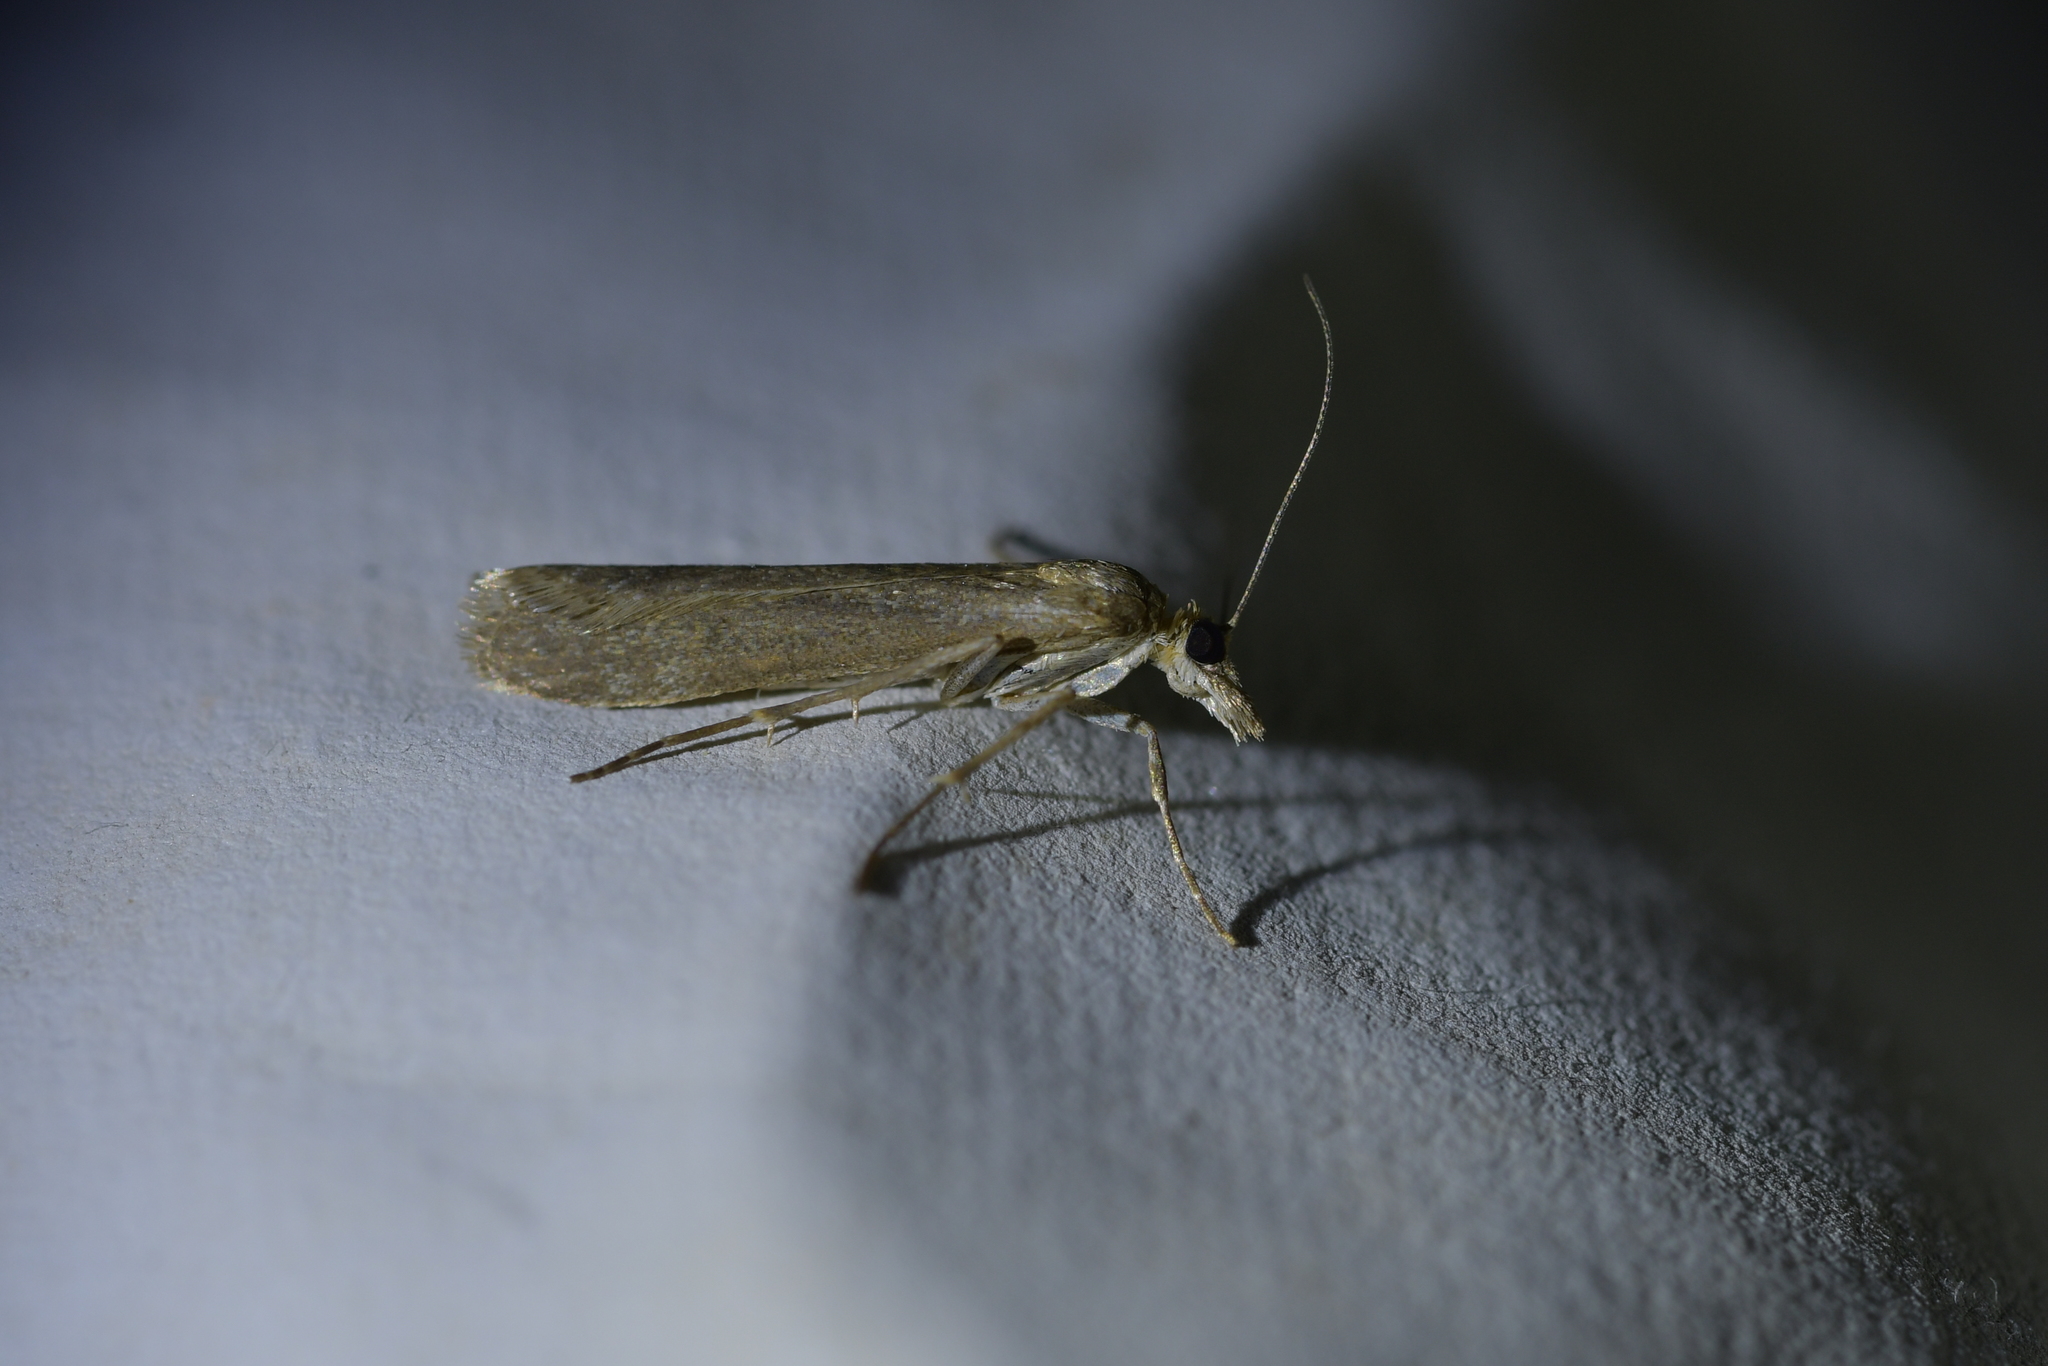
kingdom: Animalia
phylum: Arthropoda
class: Insecta
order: Lepidoptera
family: Crambidae
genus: Eudonia
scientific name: Eudonia leptalea
